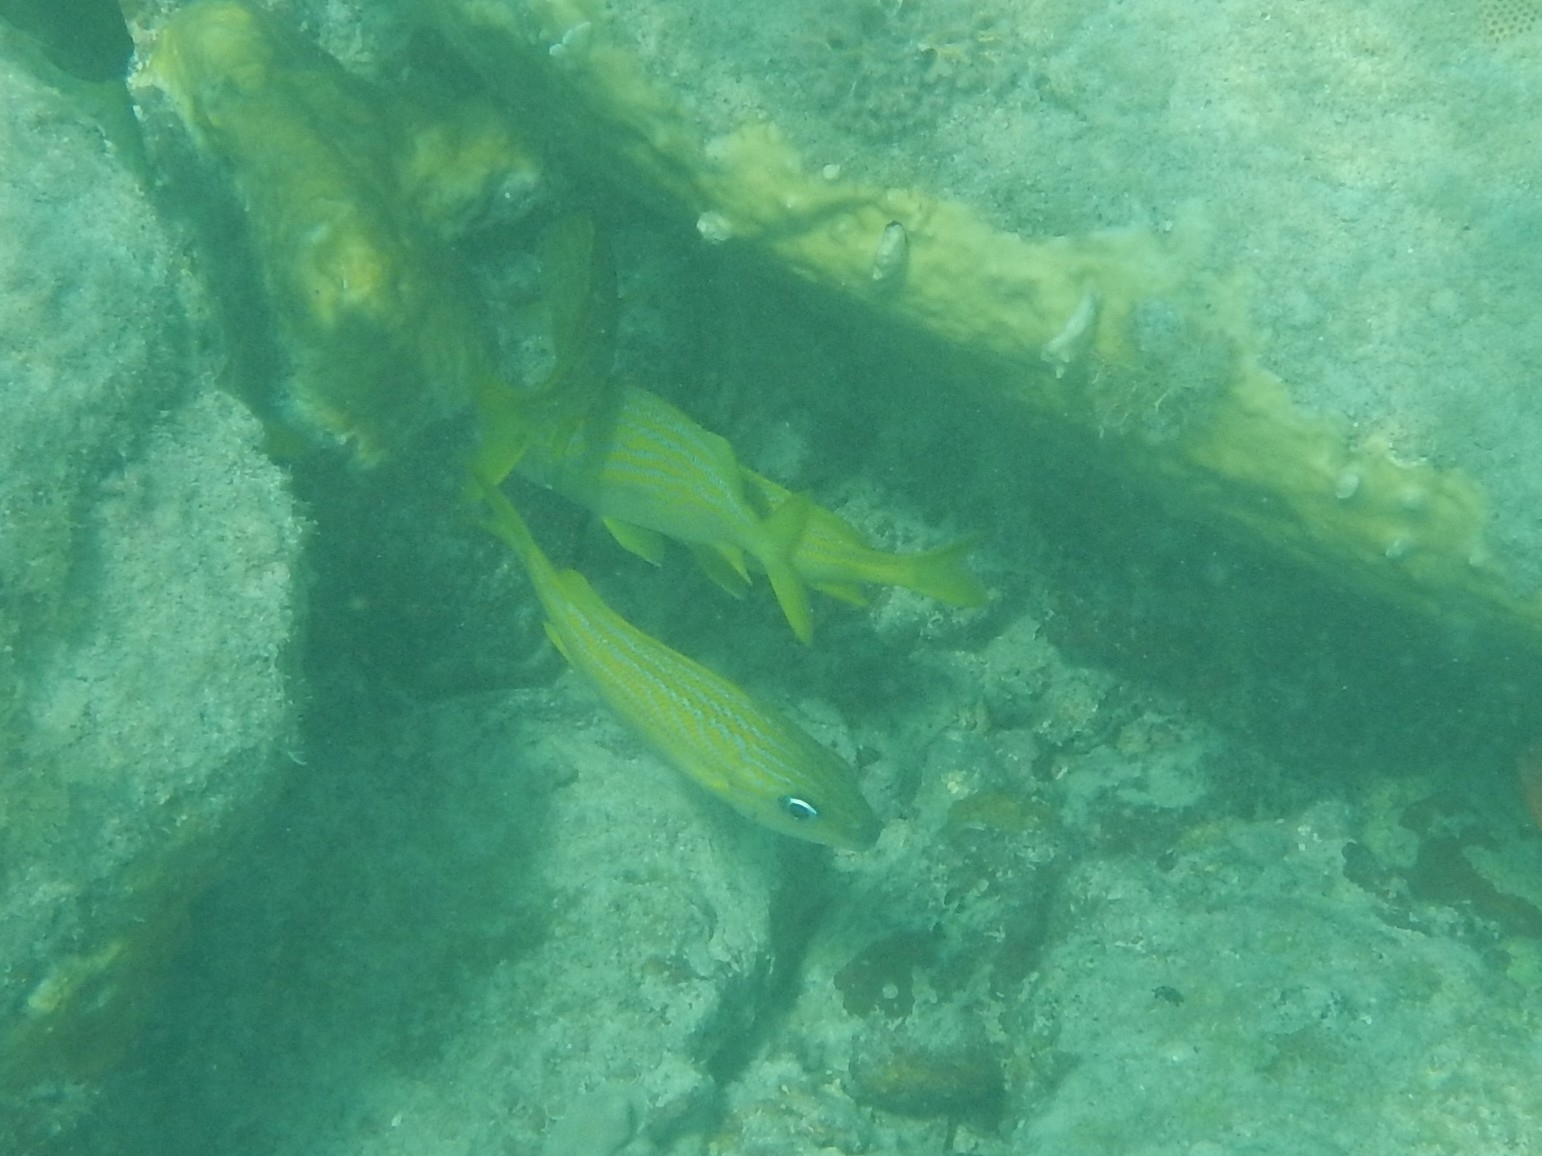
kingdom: Animalia
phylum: Chordata
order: Perciformes
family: Haemulidae
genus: Haemulon
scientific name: Haemulon flavolineatum
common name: French grunt
